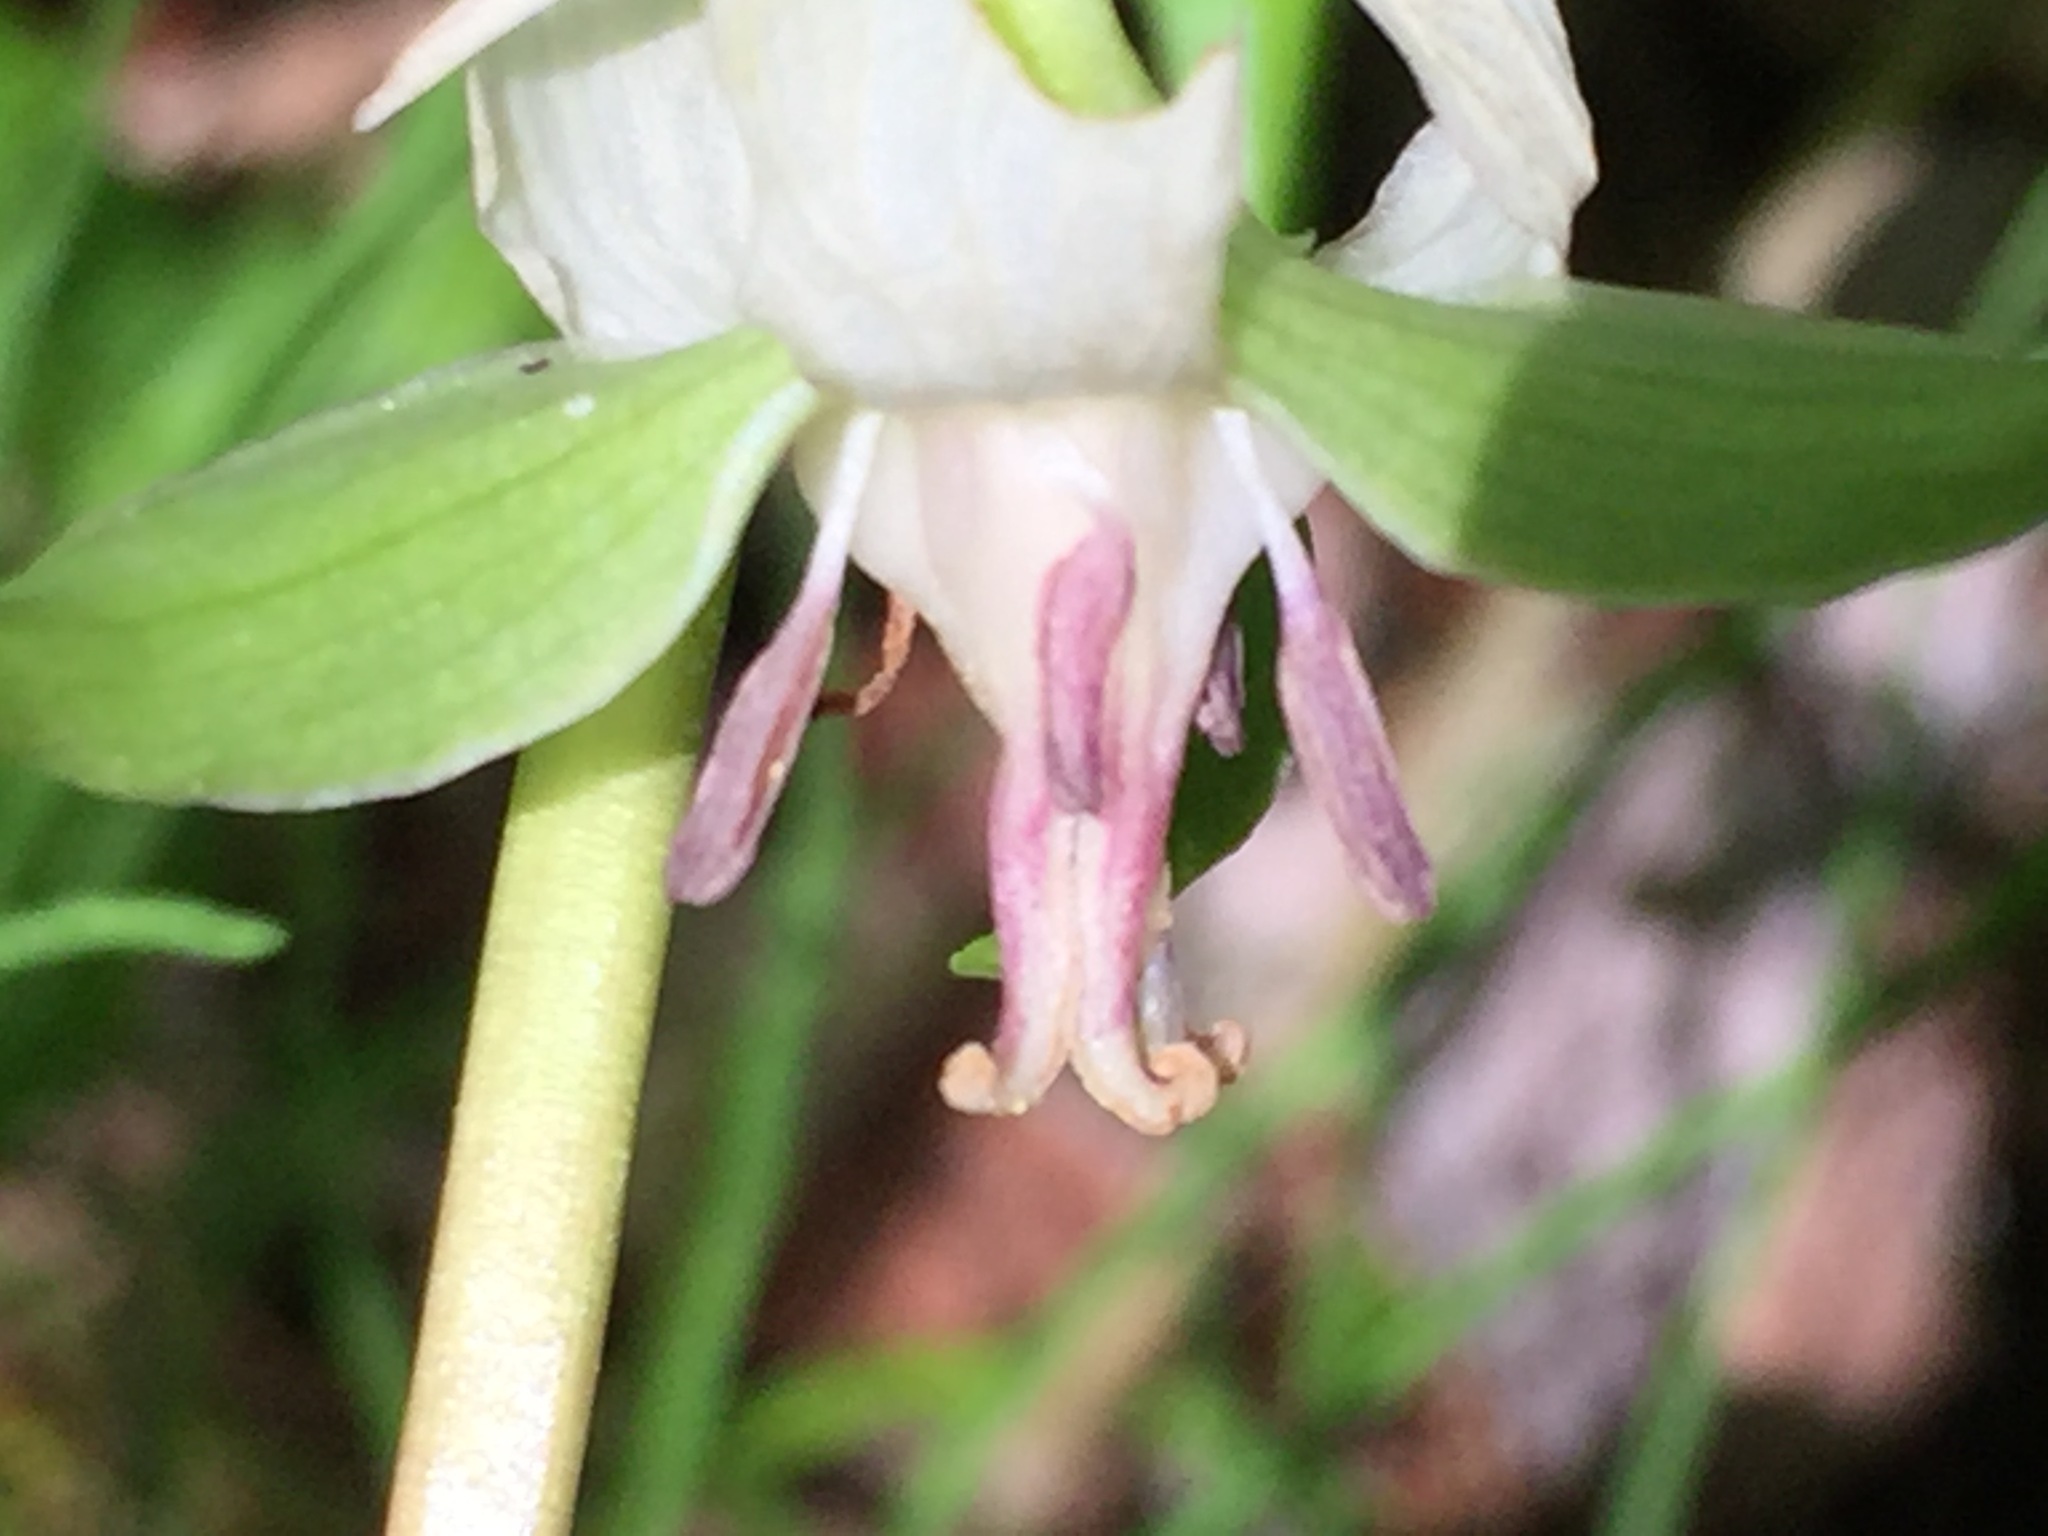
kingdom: Plantae
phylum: Tracheophyta
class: Liliopsida
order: Liliales
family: Melanthiaceae
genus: Trillium
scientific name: Trillium cernuum
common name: Nodding trillium
